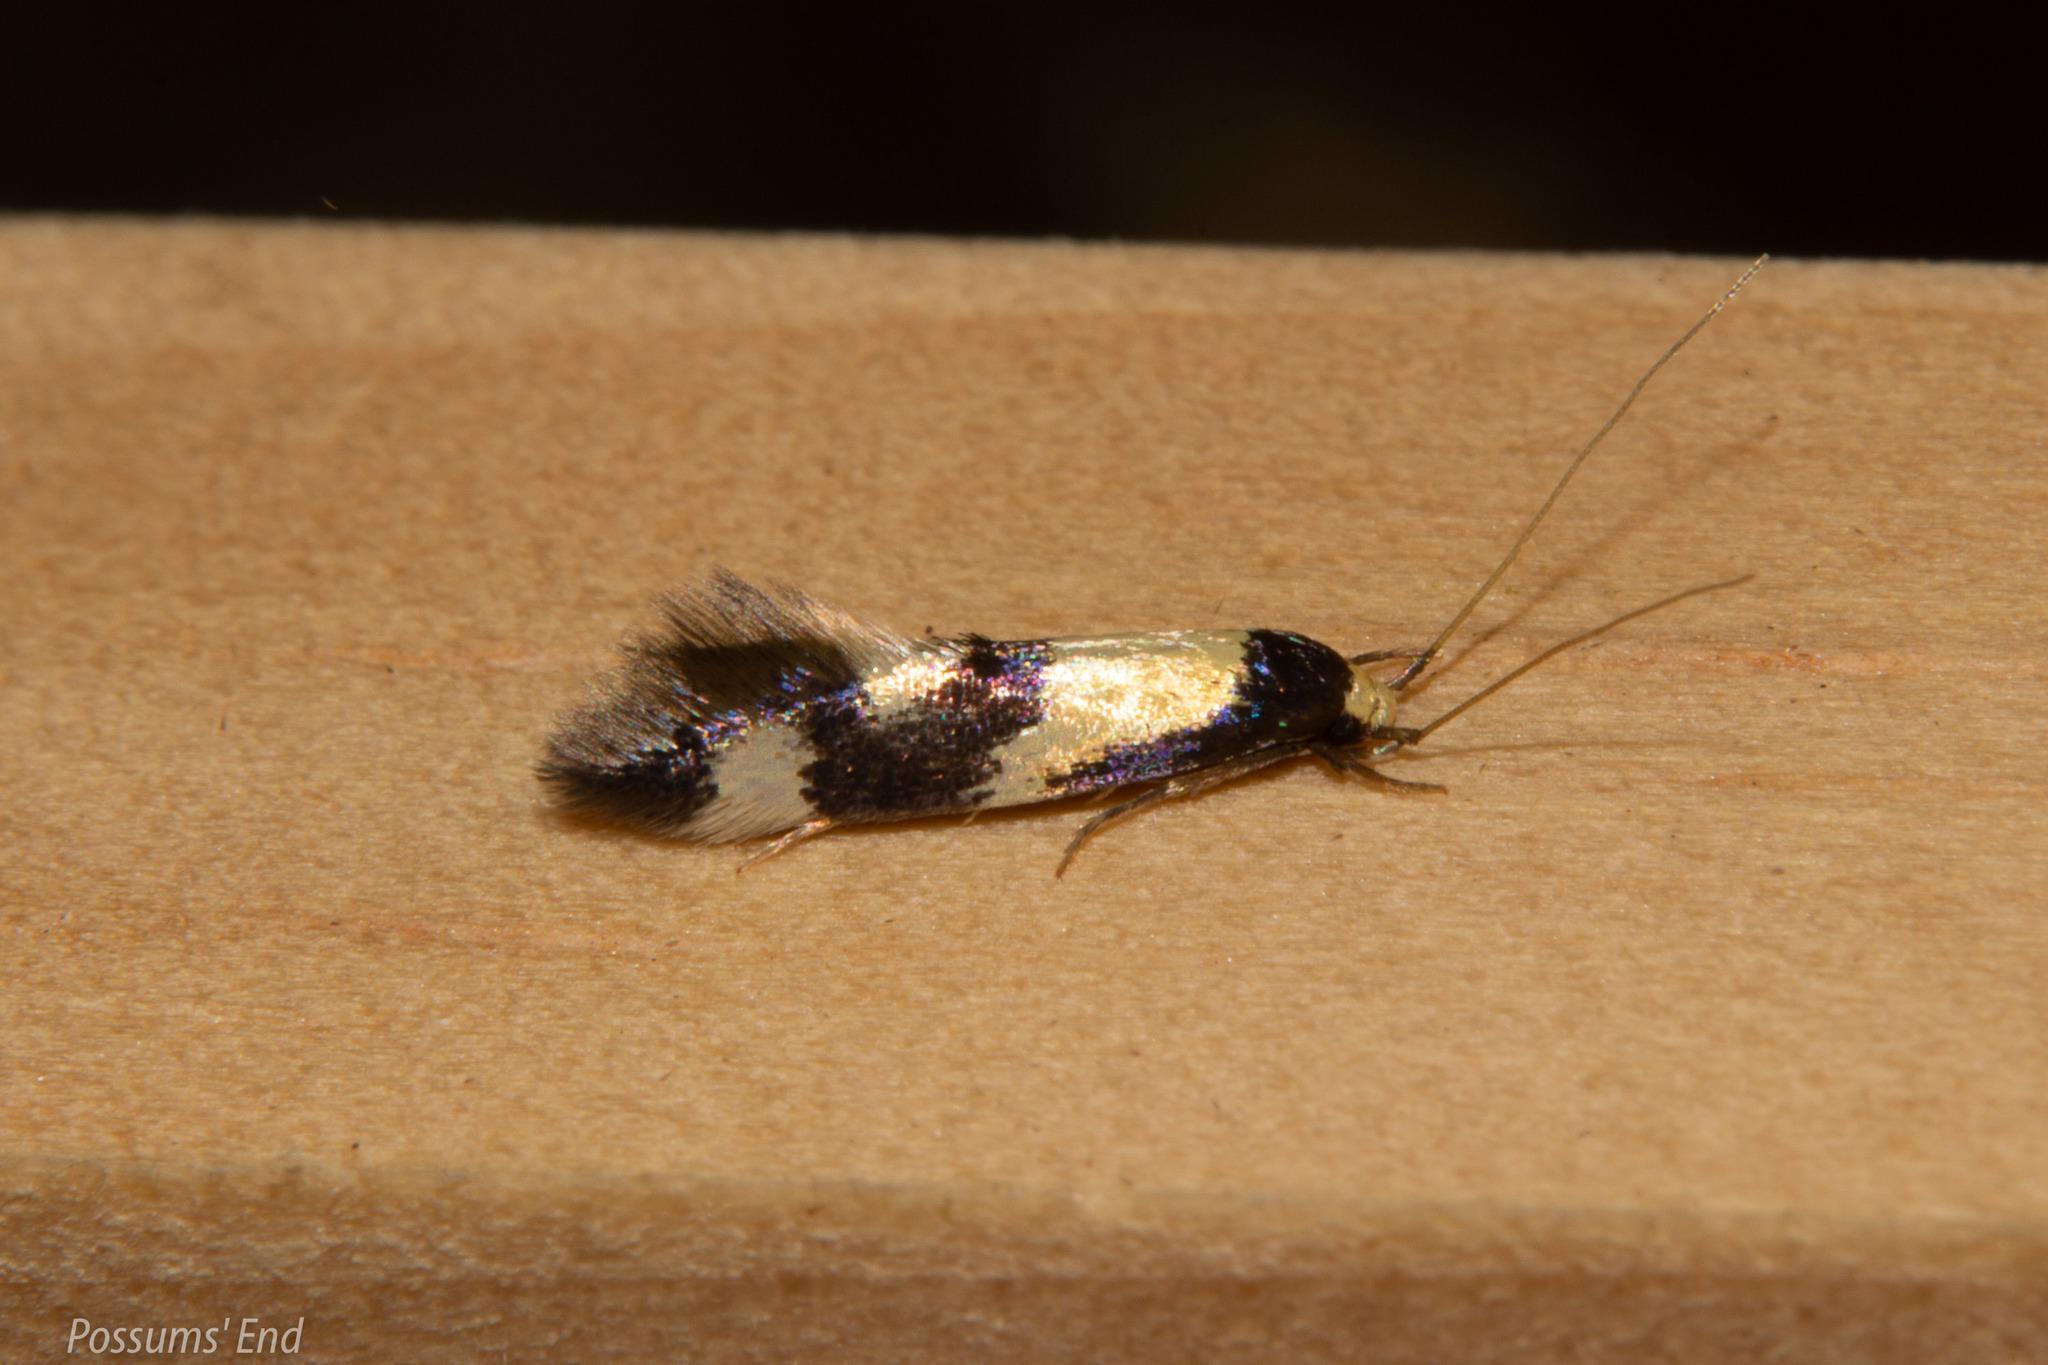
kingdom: Animalia
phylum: Arthropoda
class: Insecta
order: Lepidoptera
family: Tineidae
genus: Opogona
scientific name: Opogona comptella
